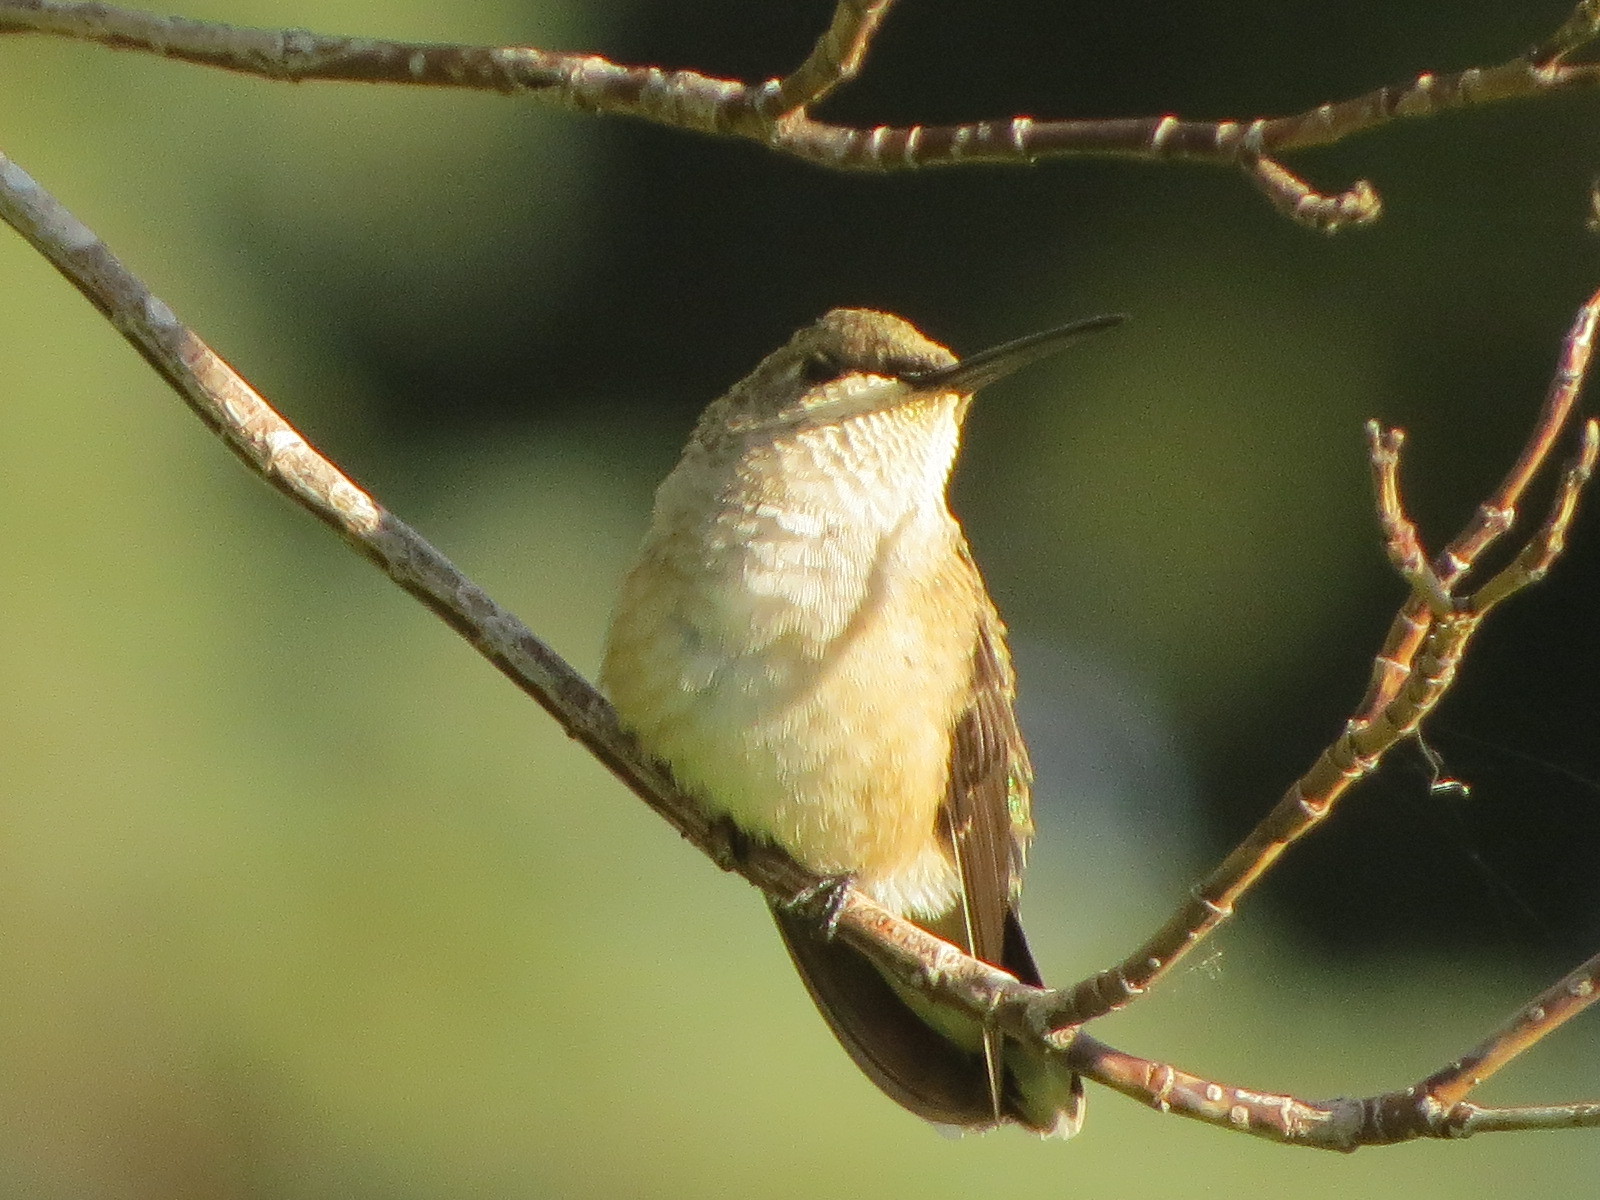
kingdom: Animalia
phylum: Chordata
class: Aves
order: Apodiformes
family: Trochilidae
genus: Selasphorus
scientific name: Selasphorus rufus
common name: Rufous hummingbird
